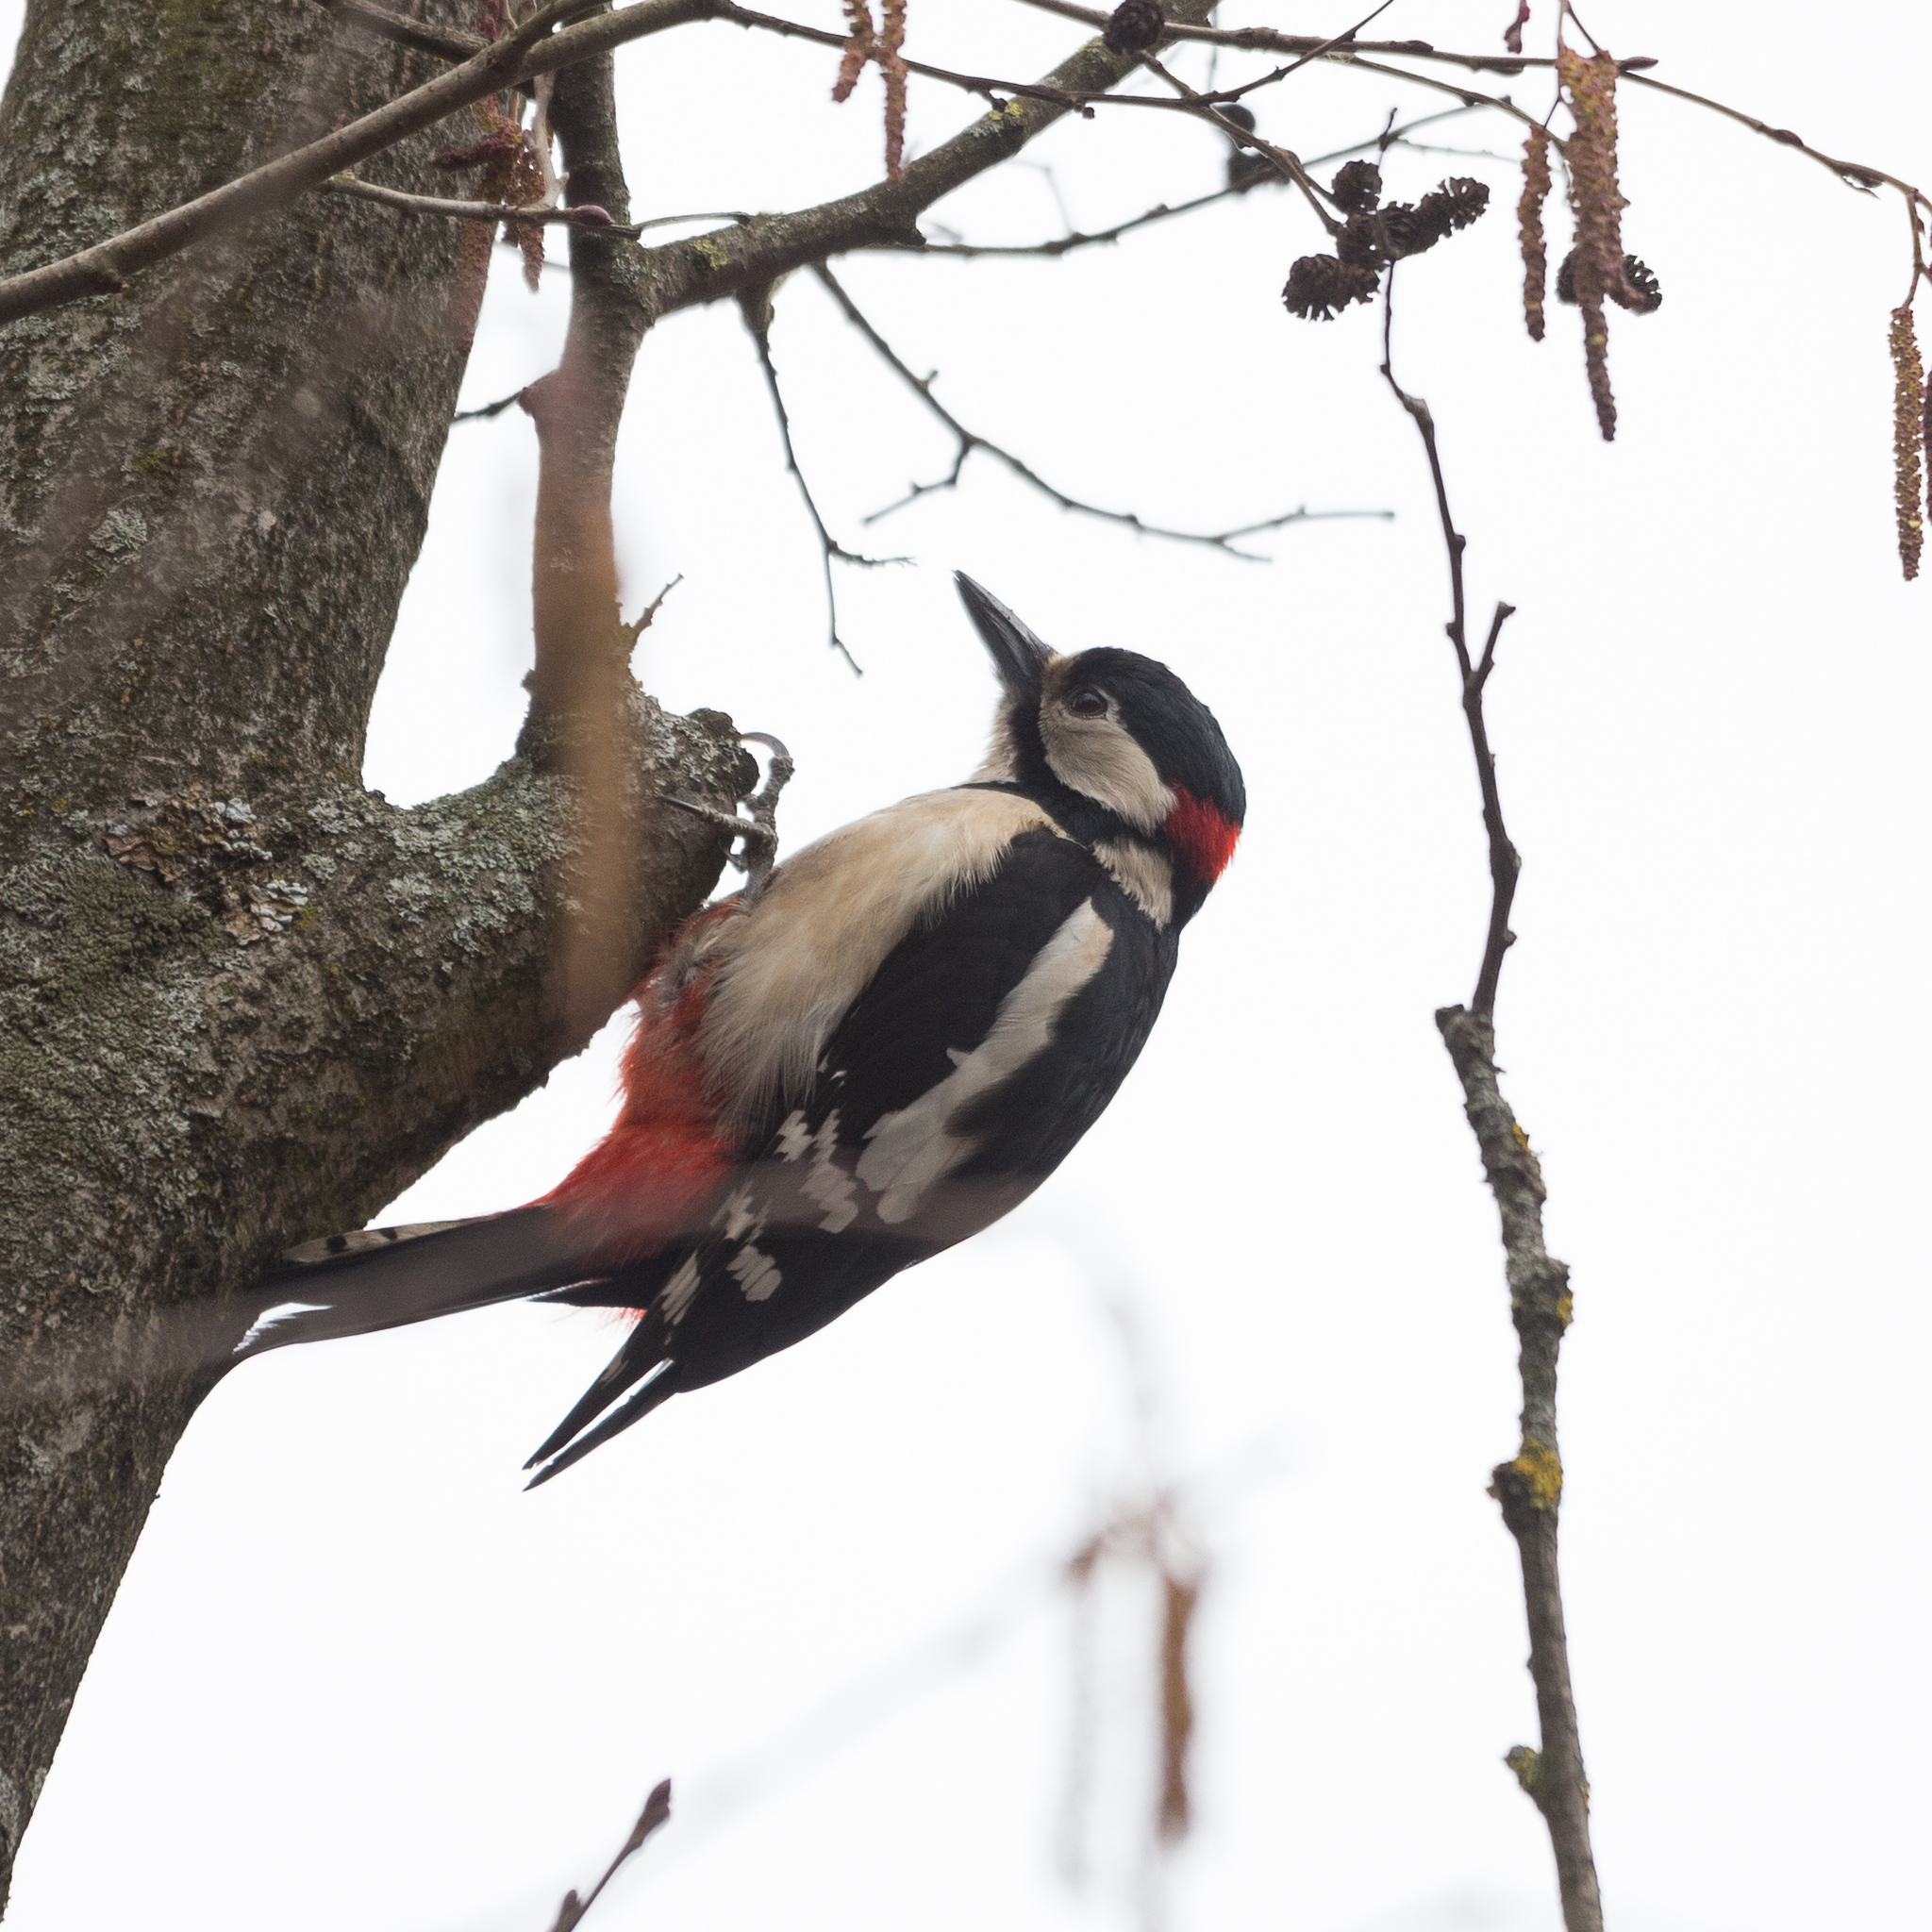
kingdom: Animalia
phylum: Chordata
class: Aves
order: Piciformes
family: Picidae
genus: Dendrocopos
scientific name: Dendrocopos major
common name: Great spotted woodpecker
